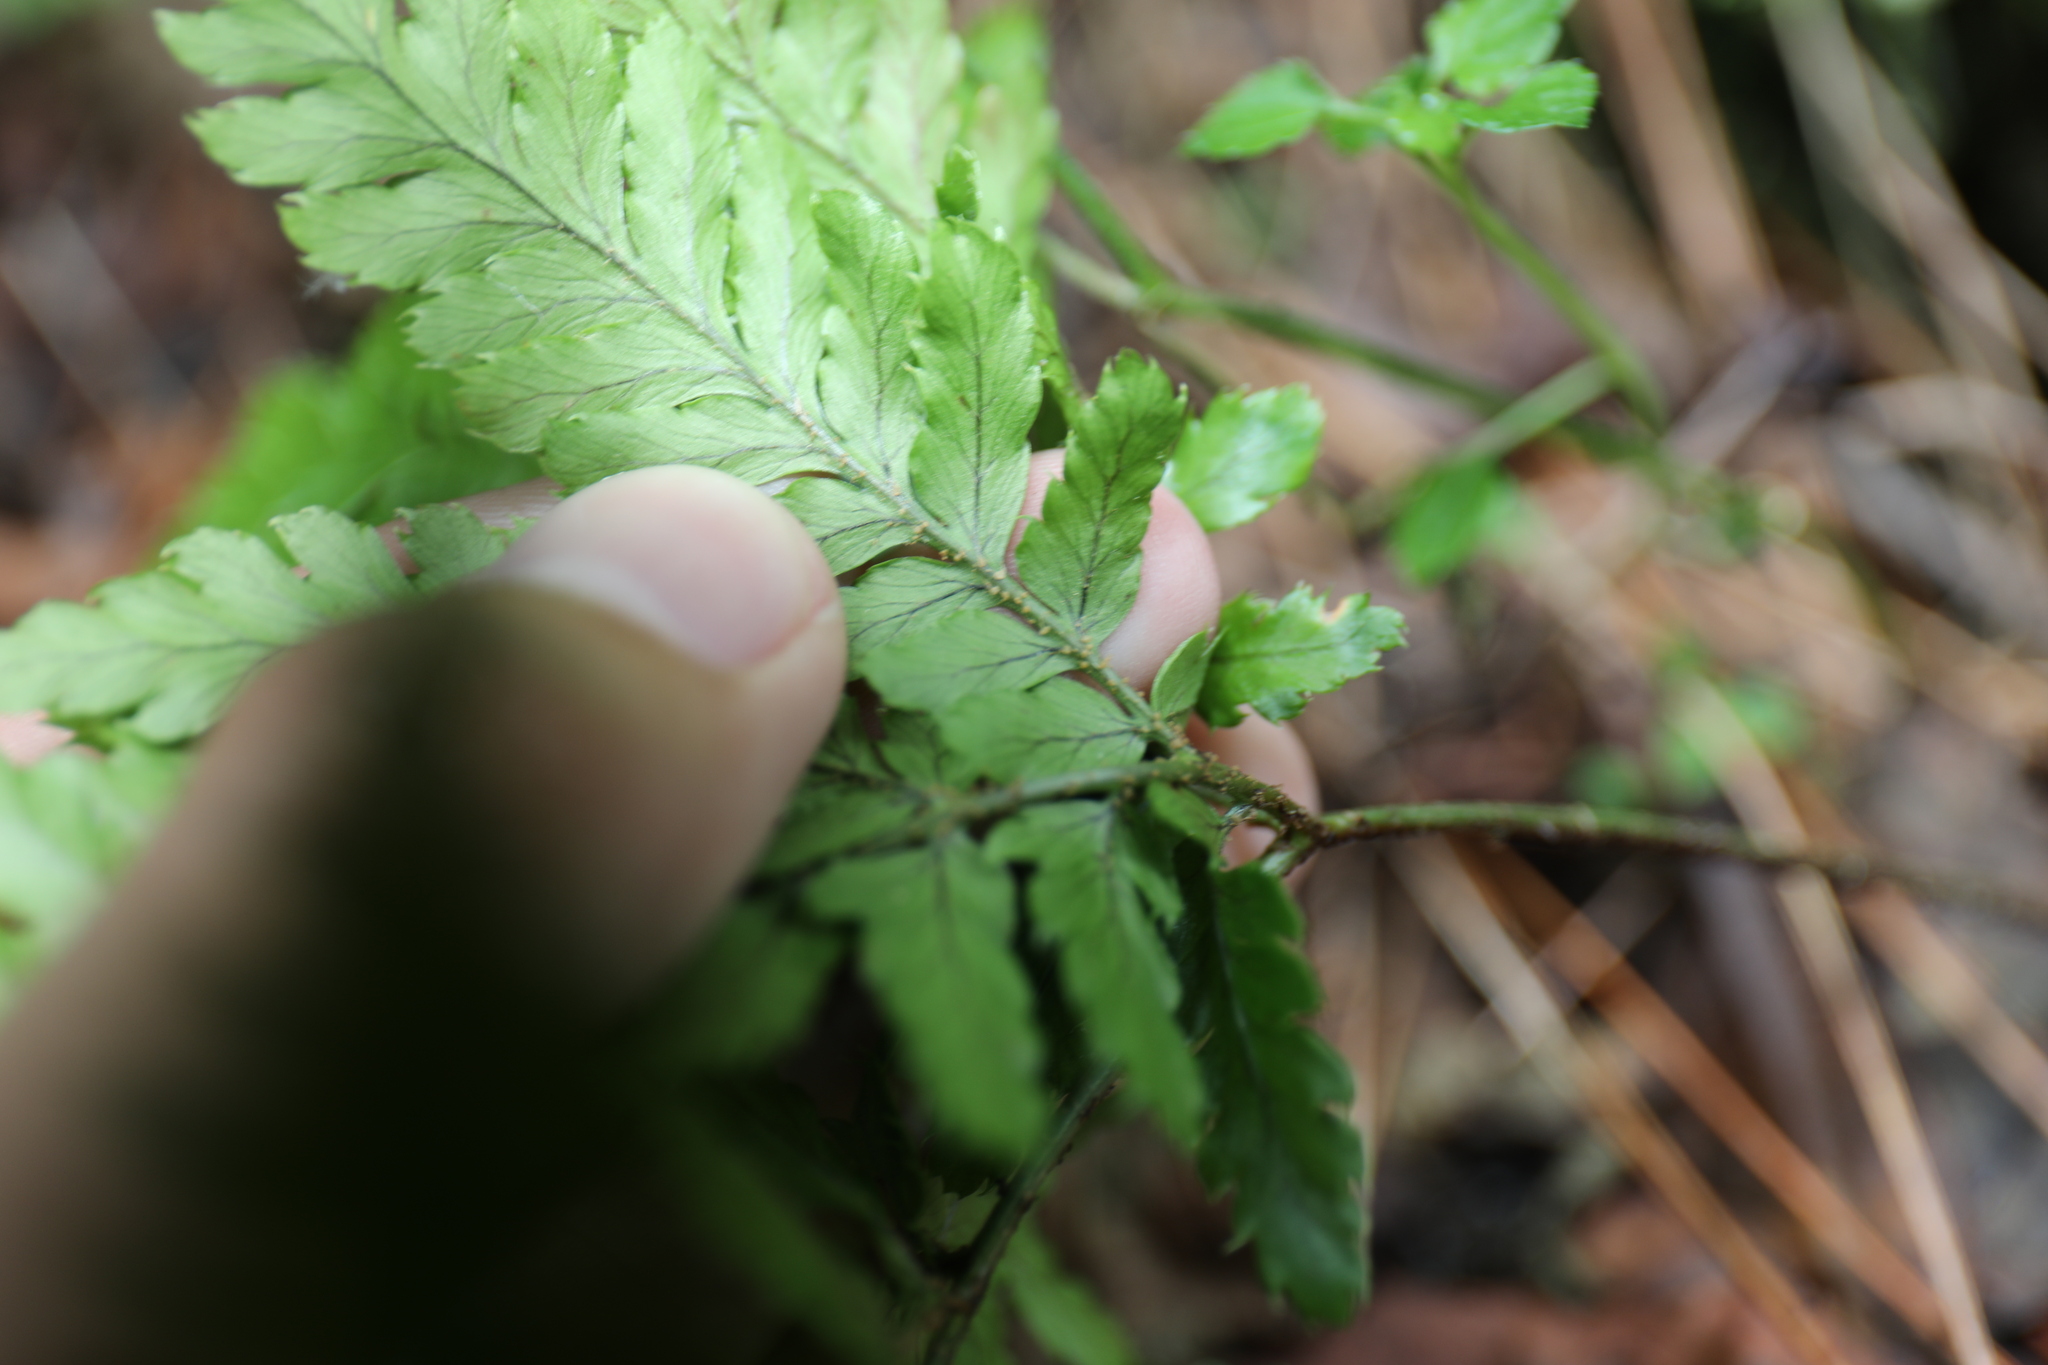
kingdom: Plantae
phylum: Tracheophyta
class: Polypodiopsida
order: Polypodiales
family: Dryopteridaceae
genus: Dryopteris
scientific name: Dryopteris formosana
